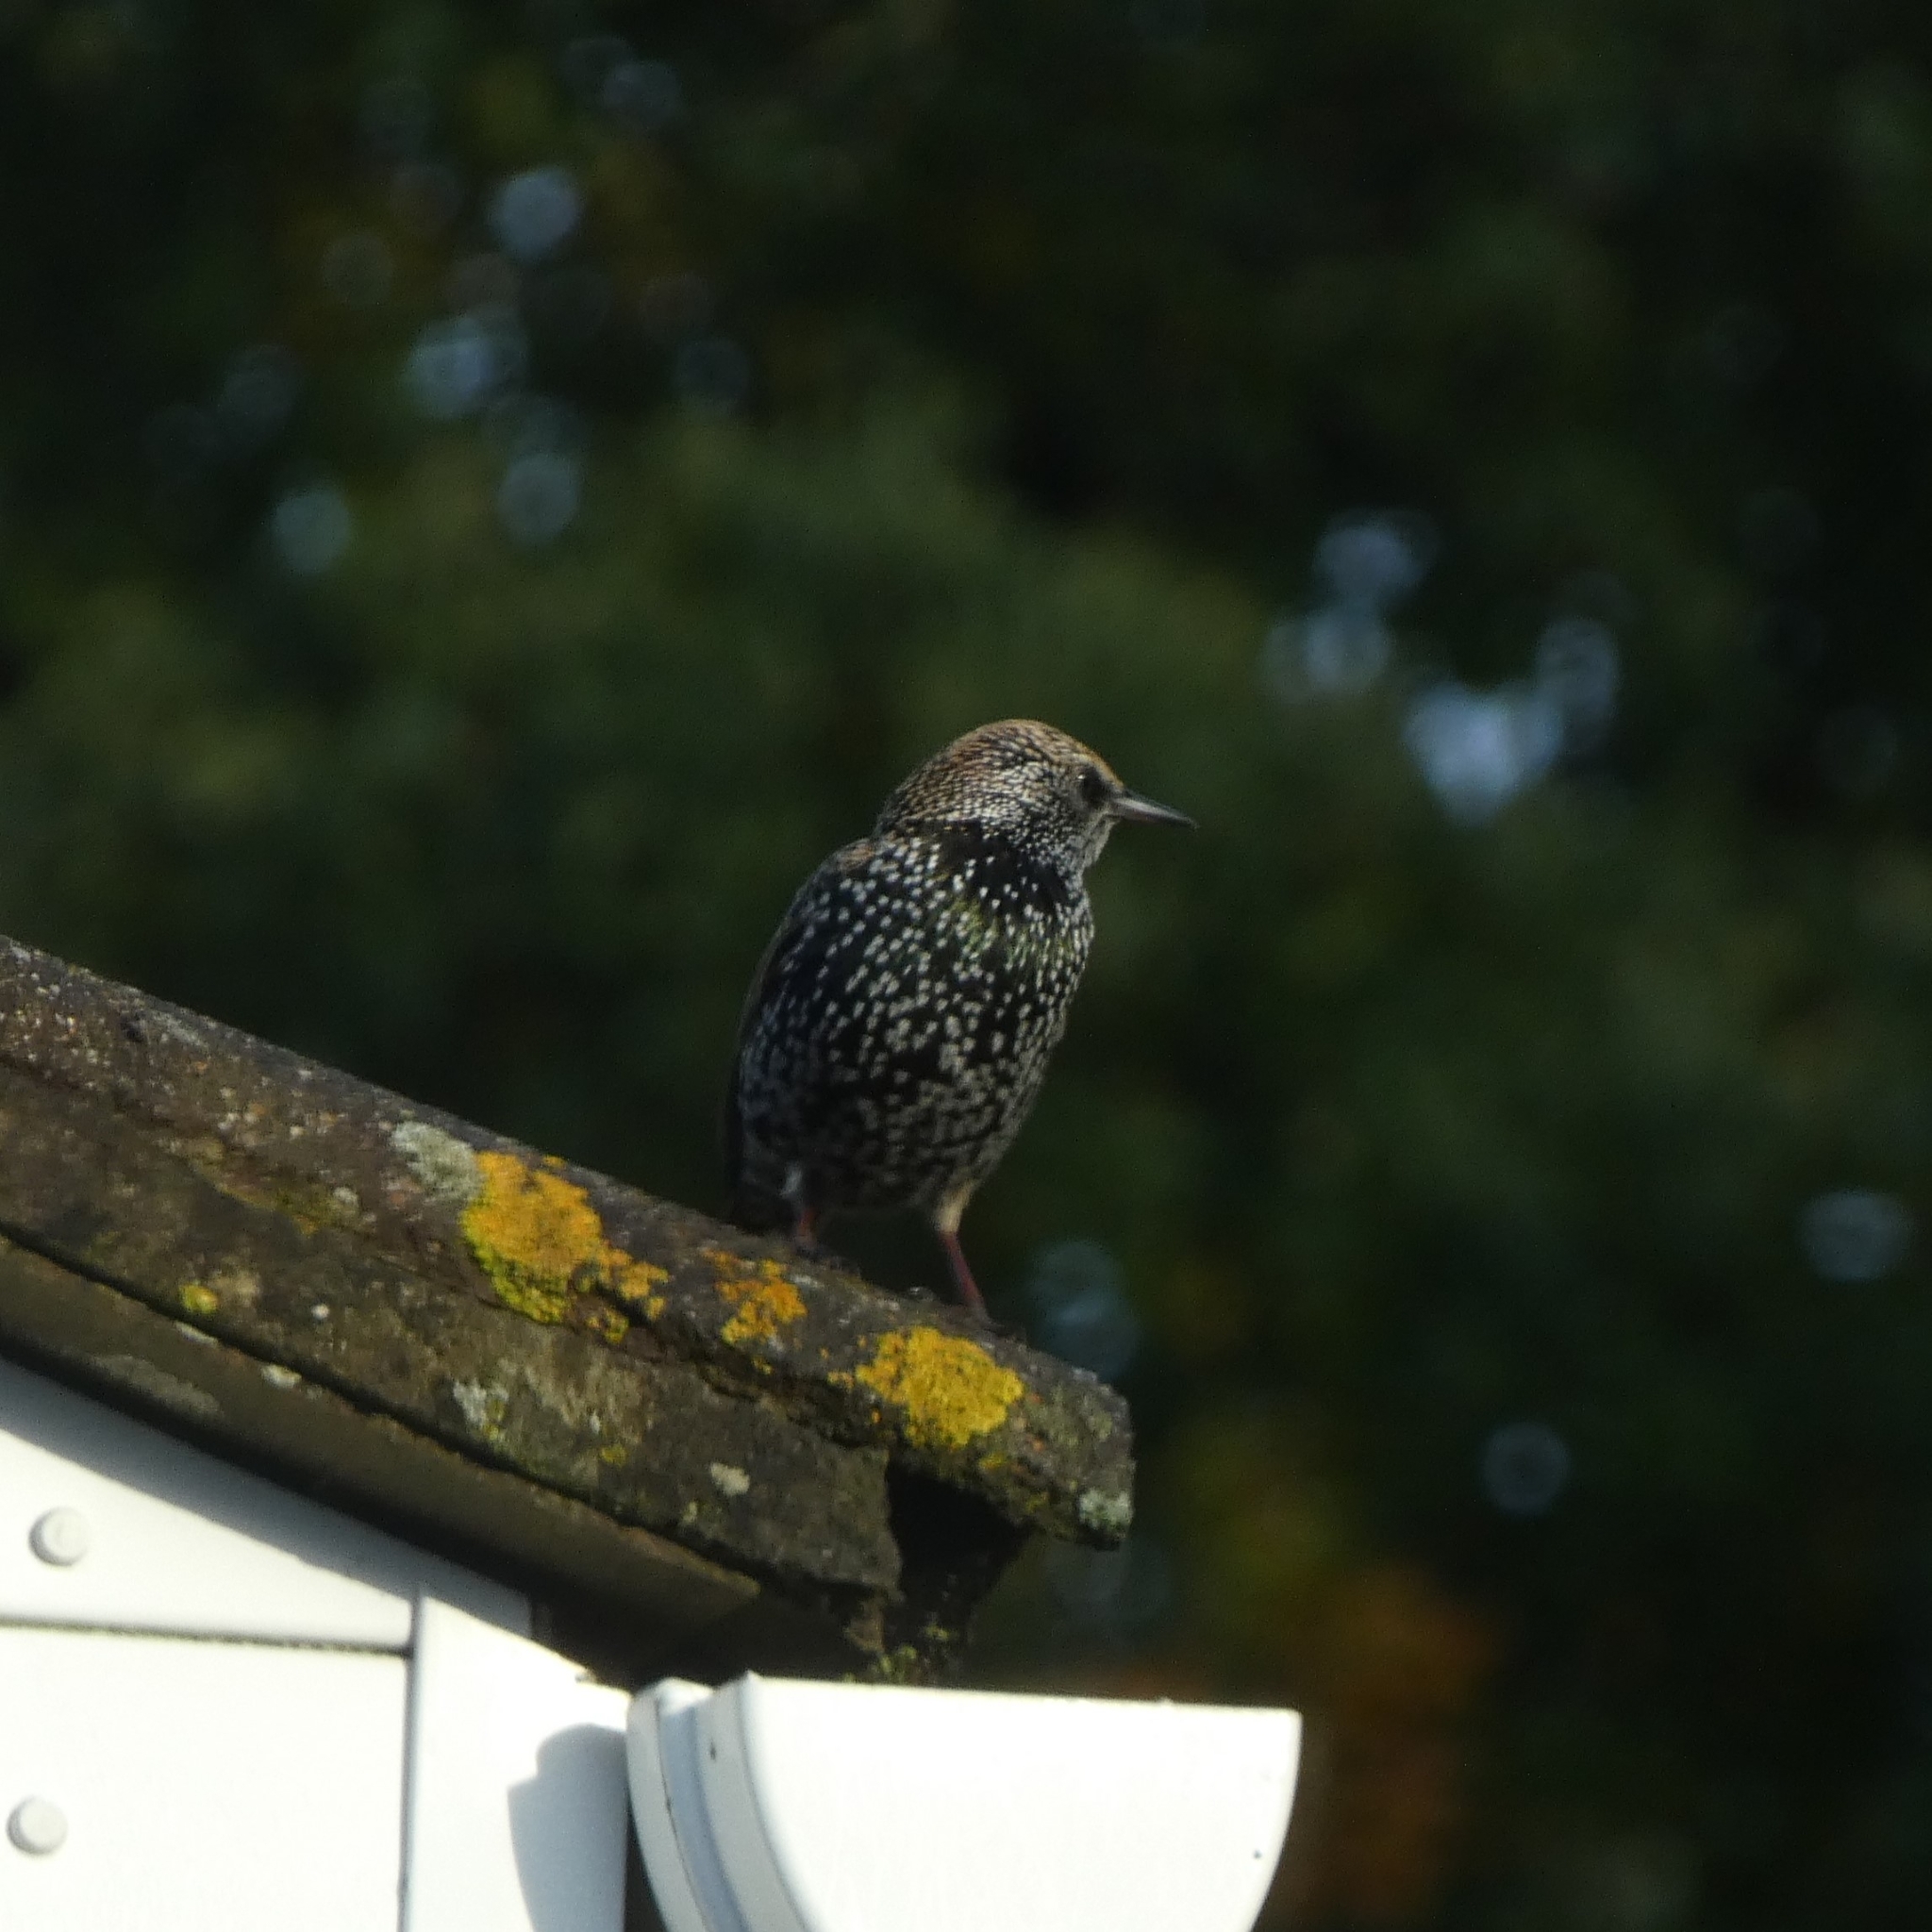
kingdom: Animalia
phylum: Chordata
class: Aves
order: Passeriformes
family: Sturnidae
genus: Sturnus
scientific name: Sturnus vulgaris
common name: Common starling
